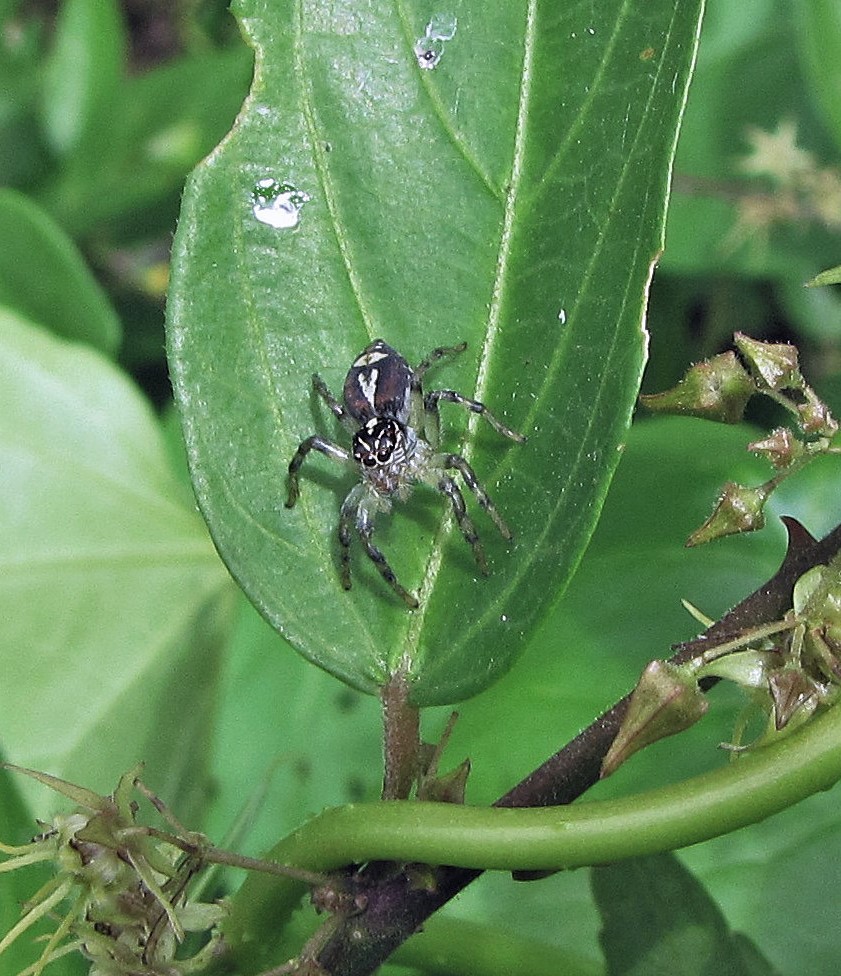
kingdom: Animalia
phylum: Arthropoda
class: Arachnida
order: Araneae
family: Salticidae
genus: Frigga
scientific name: Frigga quintensis
